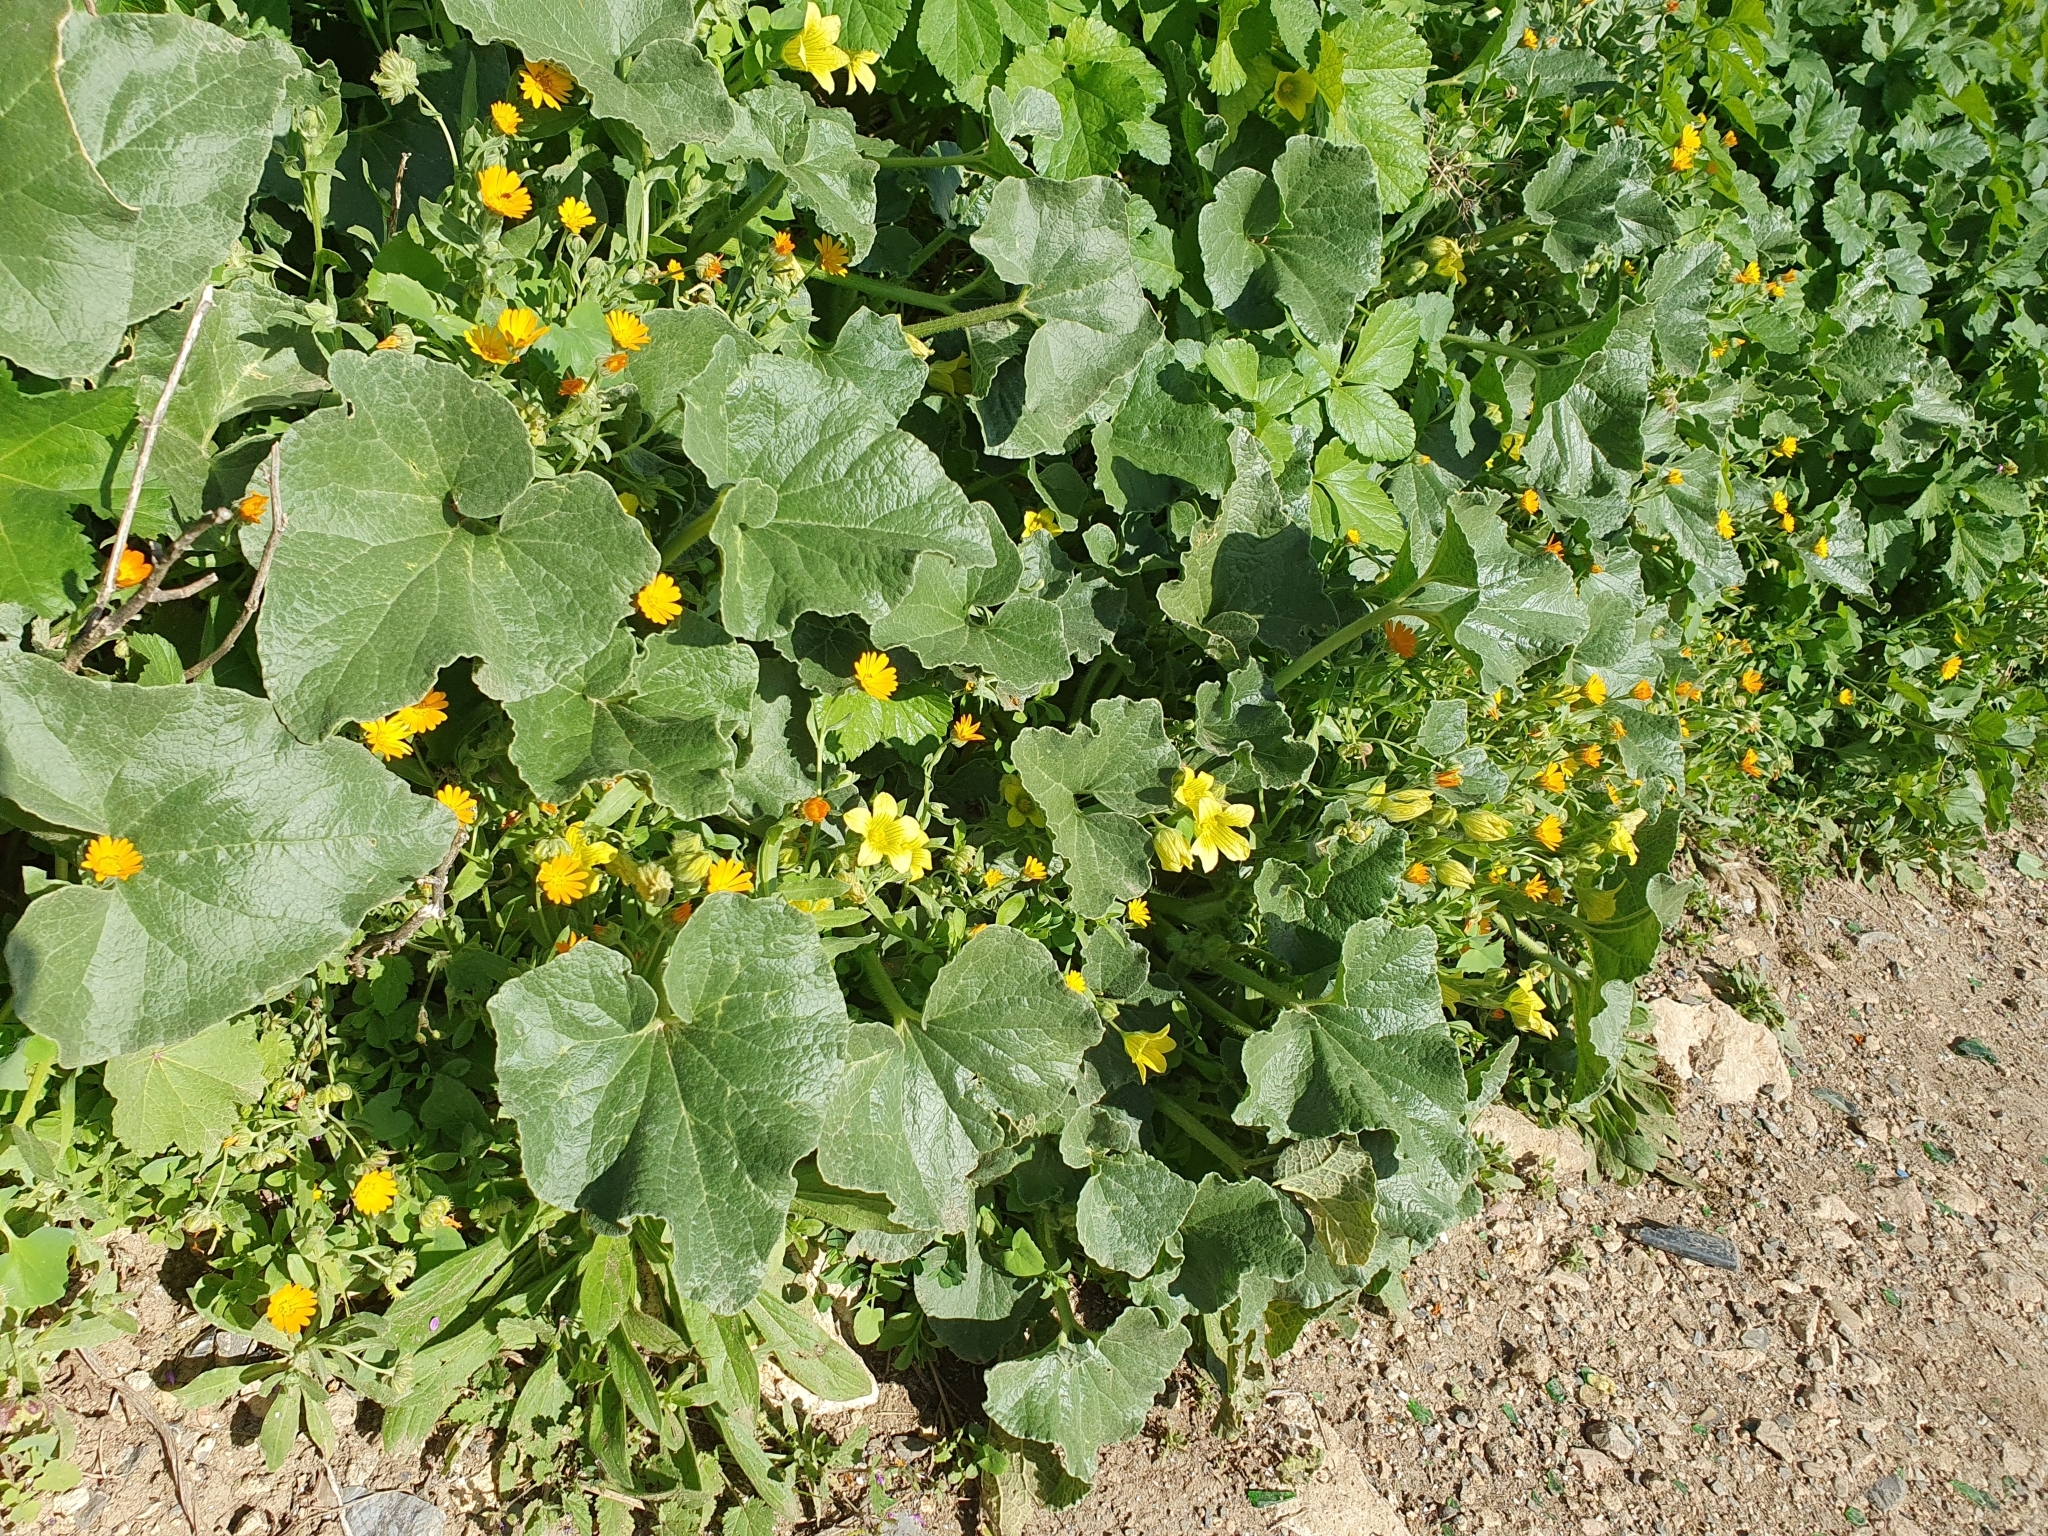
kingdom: Plantae
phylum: Tracheophyta
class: Magnoliopsida
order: Cucurbitales
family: Cucurbitaceae
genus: Ecballium
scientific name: Ecballium elaterium
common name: Squirting cucumber
